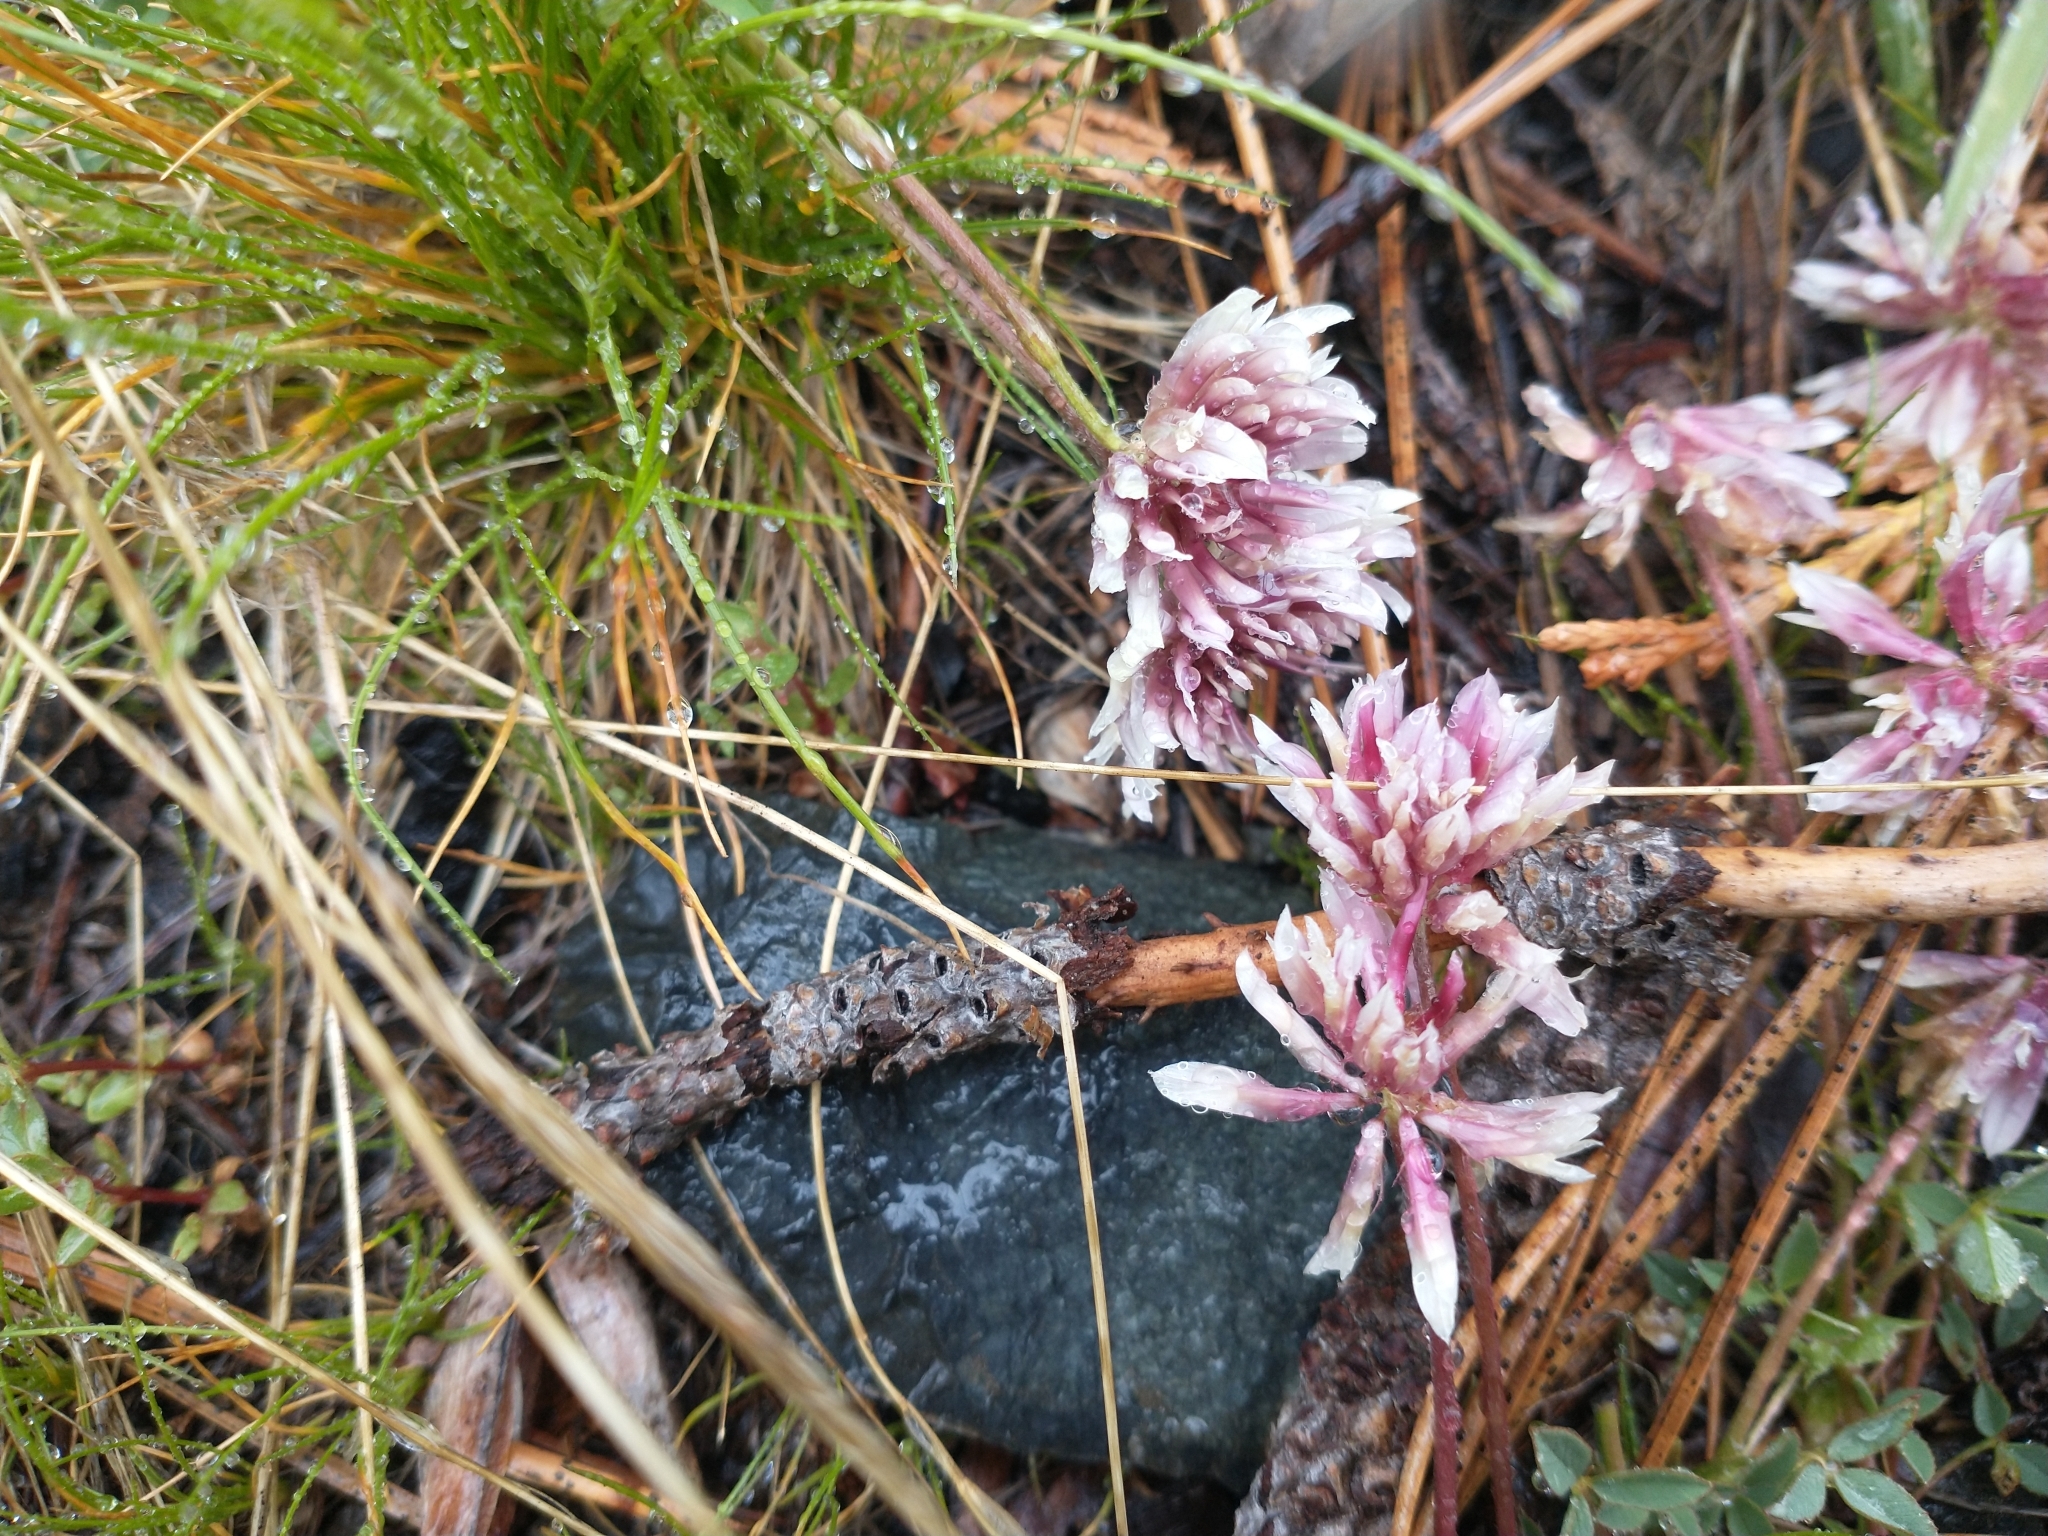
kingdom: Plantae
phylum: Tracheophyta
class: Magnoliopsida
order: Fabales
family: Fabaceae
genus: Trifolium
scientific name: Trifolium wormskioldii
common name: Springbank clover
